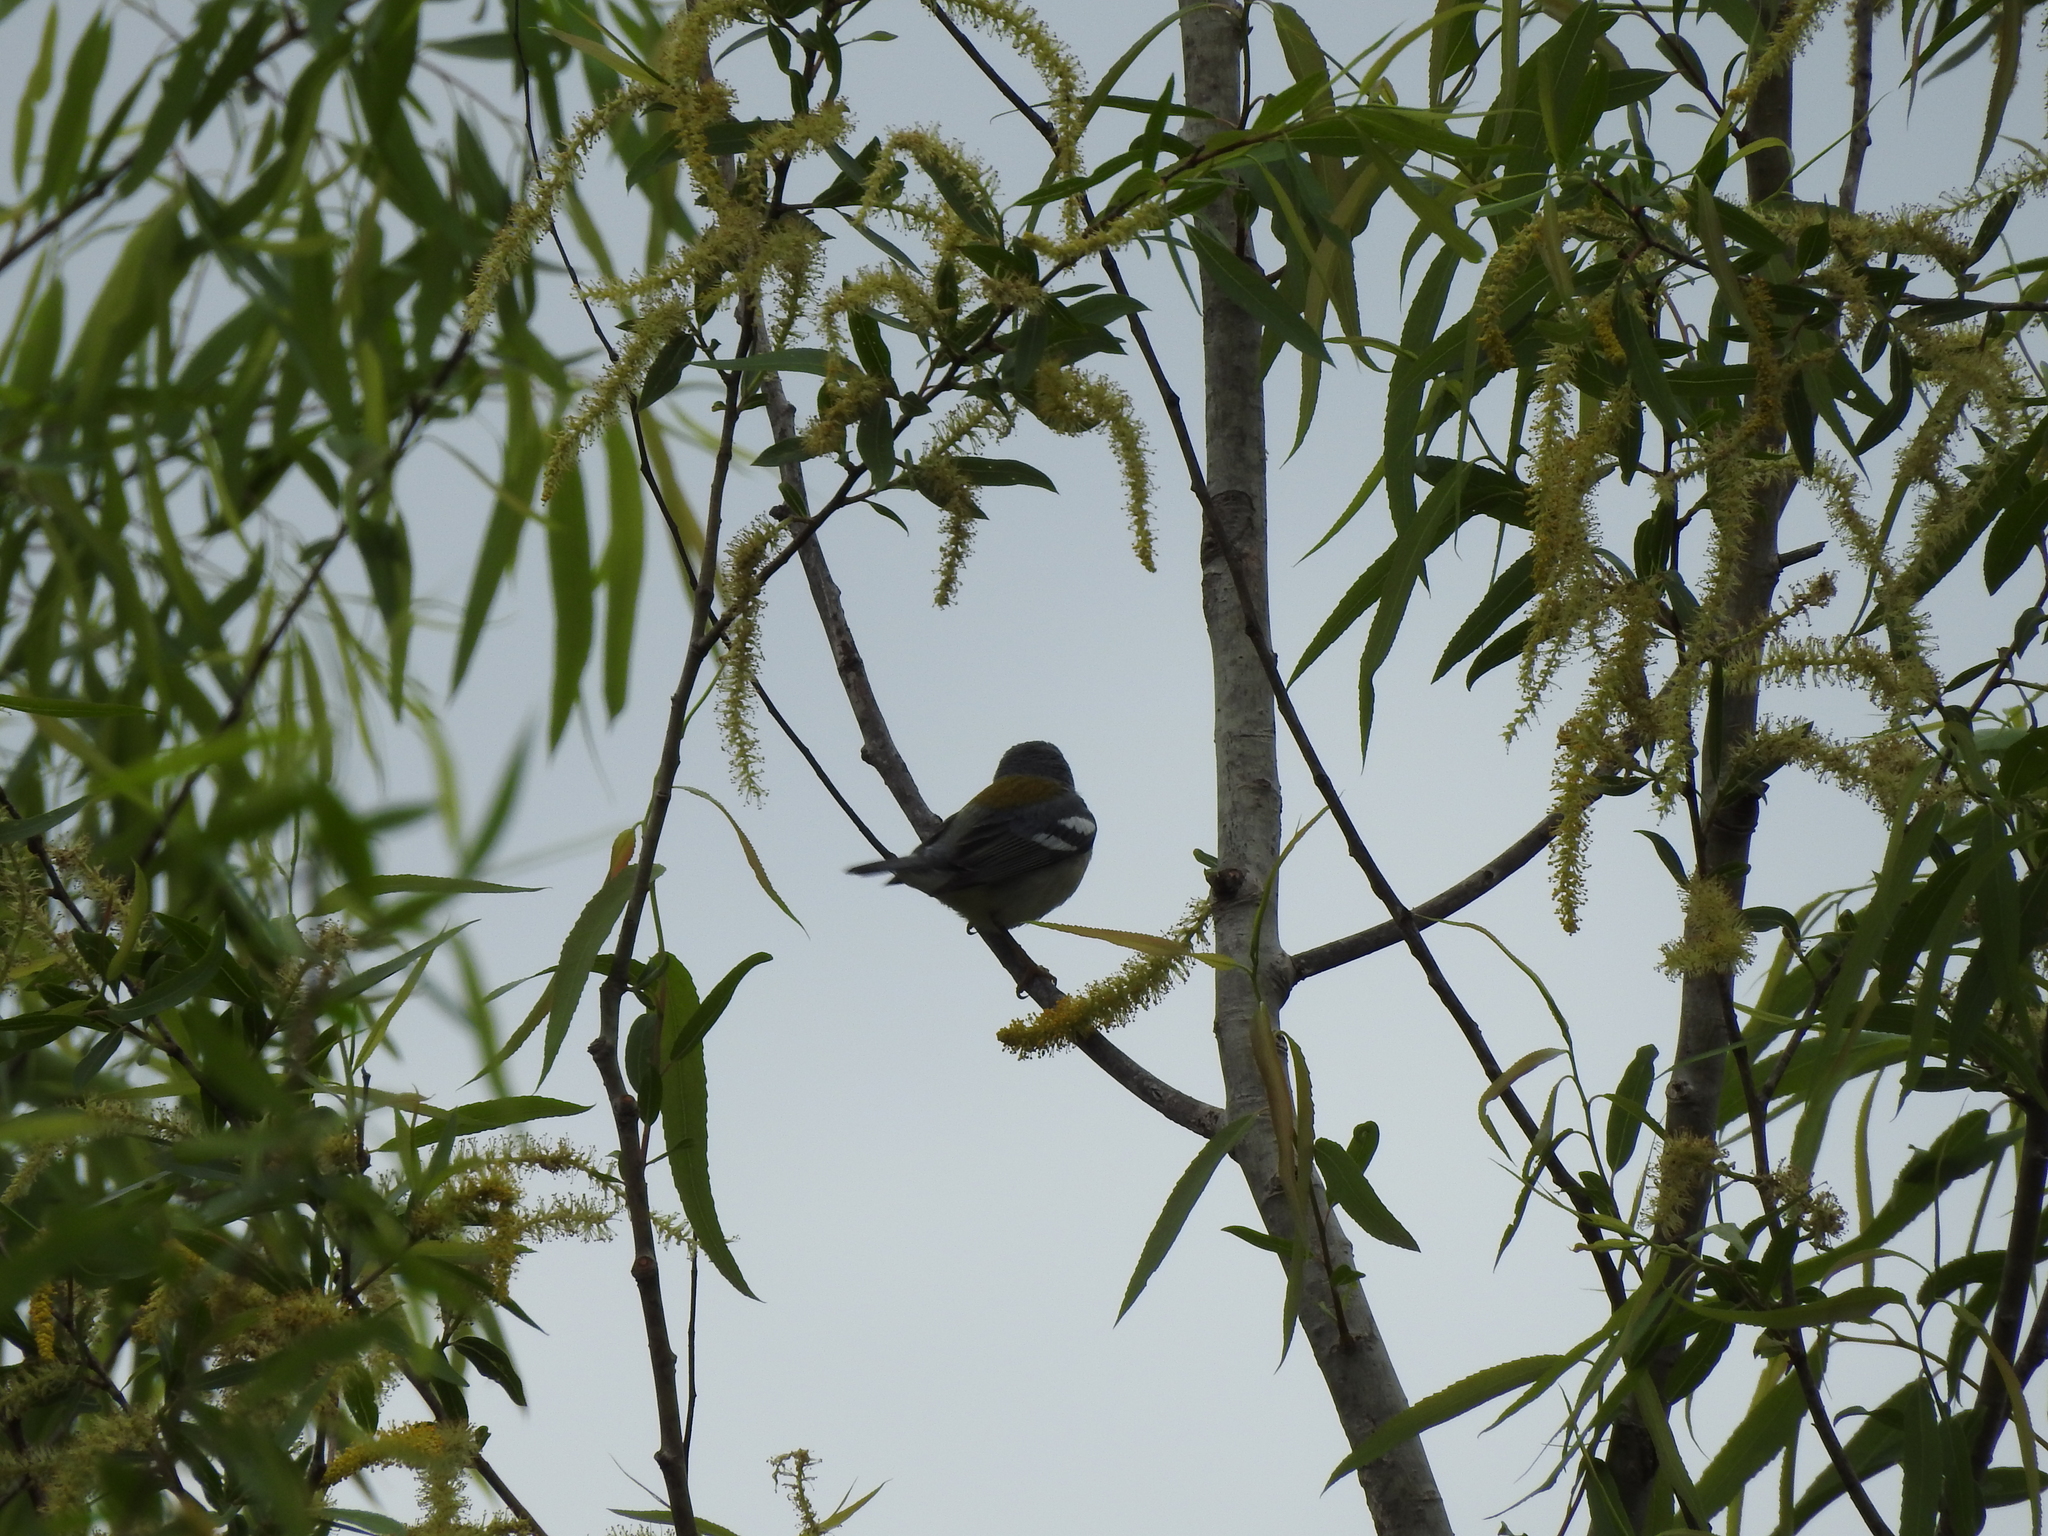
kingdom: Animalia
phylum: Chordata
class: Aves
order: Passeriformes
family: Parulidae
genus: Setophaga
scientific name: Setophaga americana
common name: Northern parula
